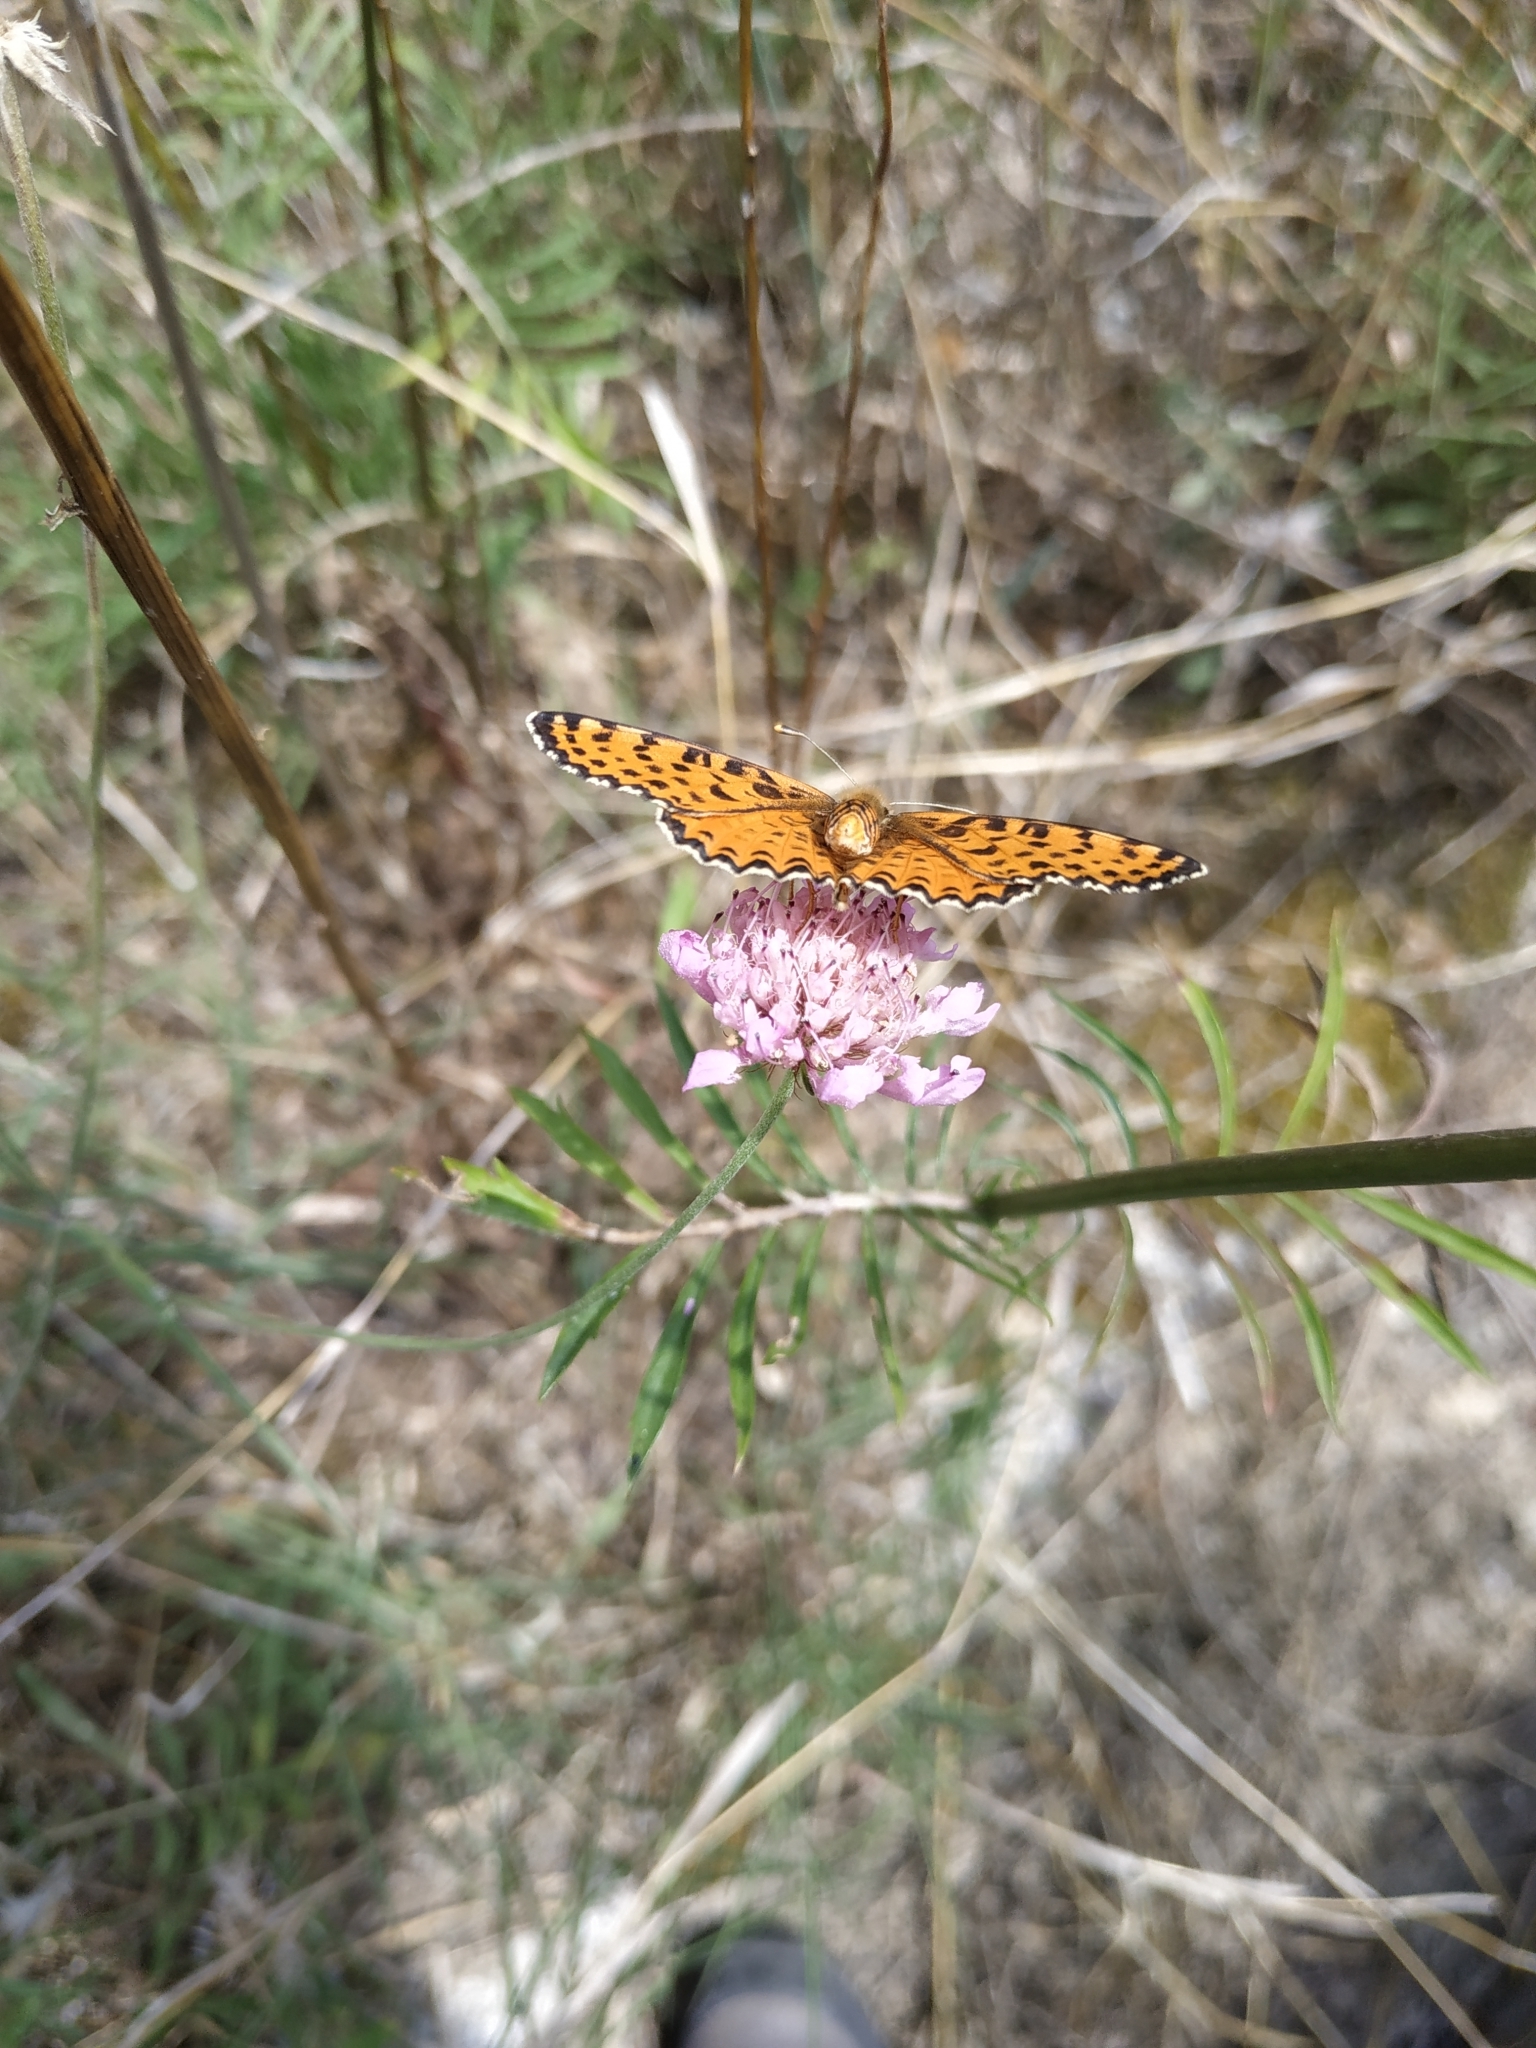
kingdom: Animalia
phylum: Arthropoda
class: Insecta
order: Lepidoptera
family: Nymphalidae
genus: Melitaea
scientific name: Melitaea didyma
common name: Spotted fritillary
